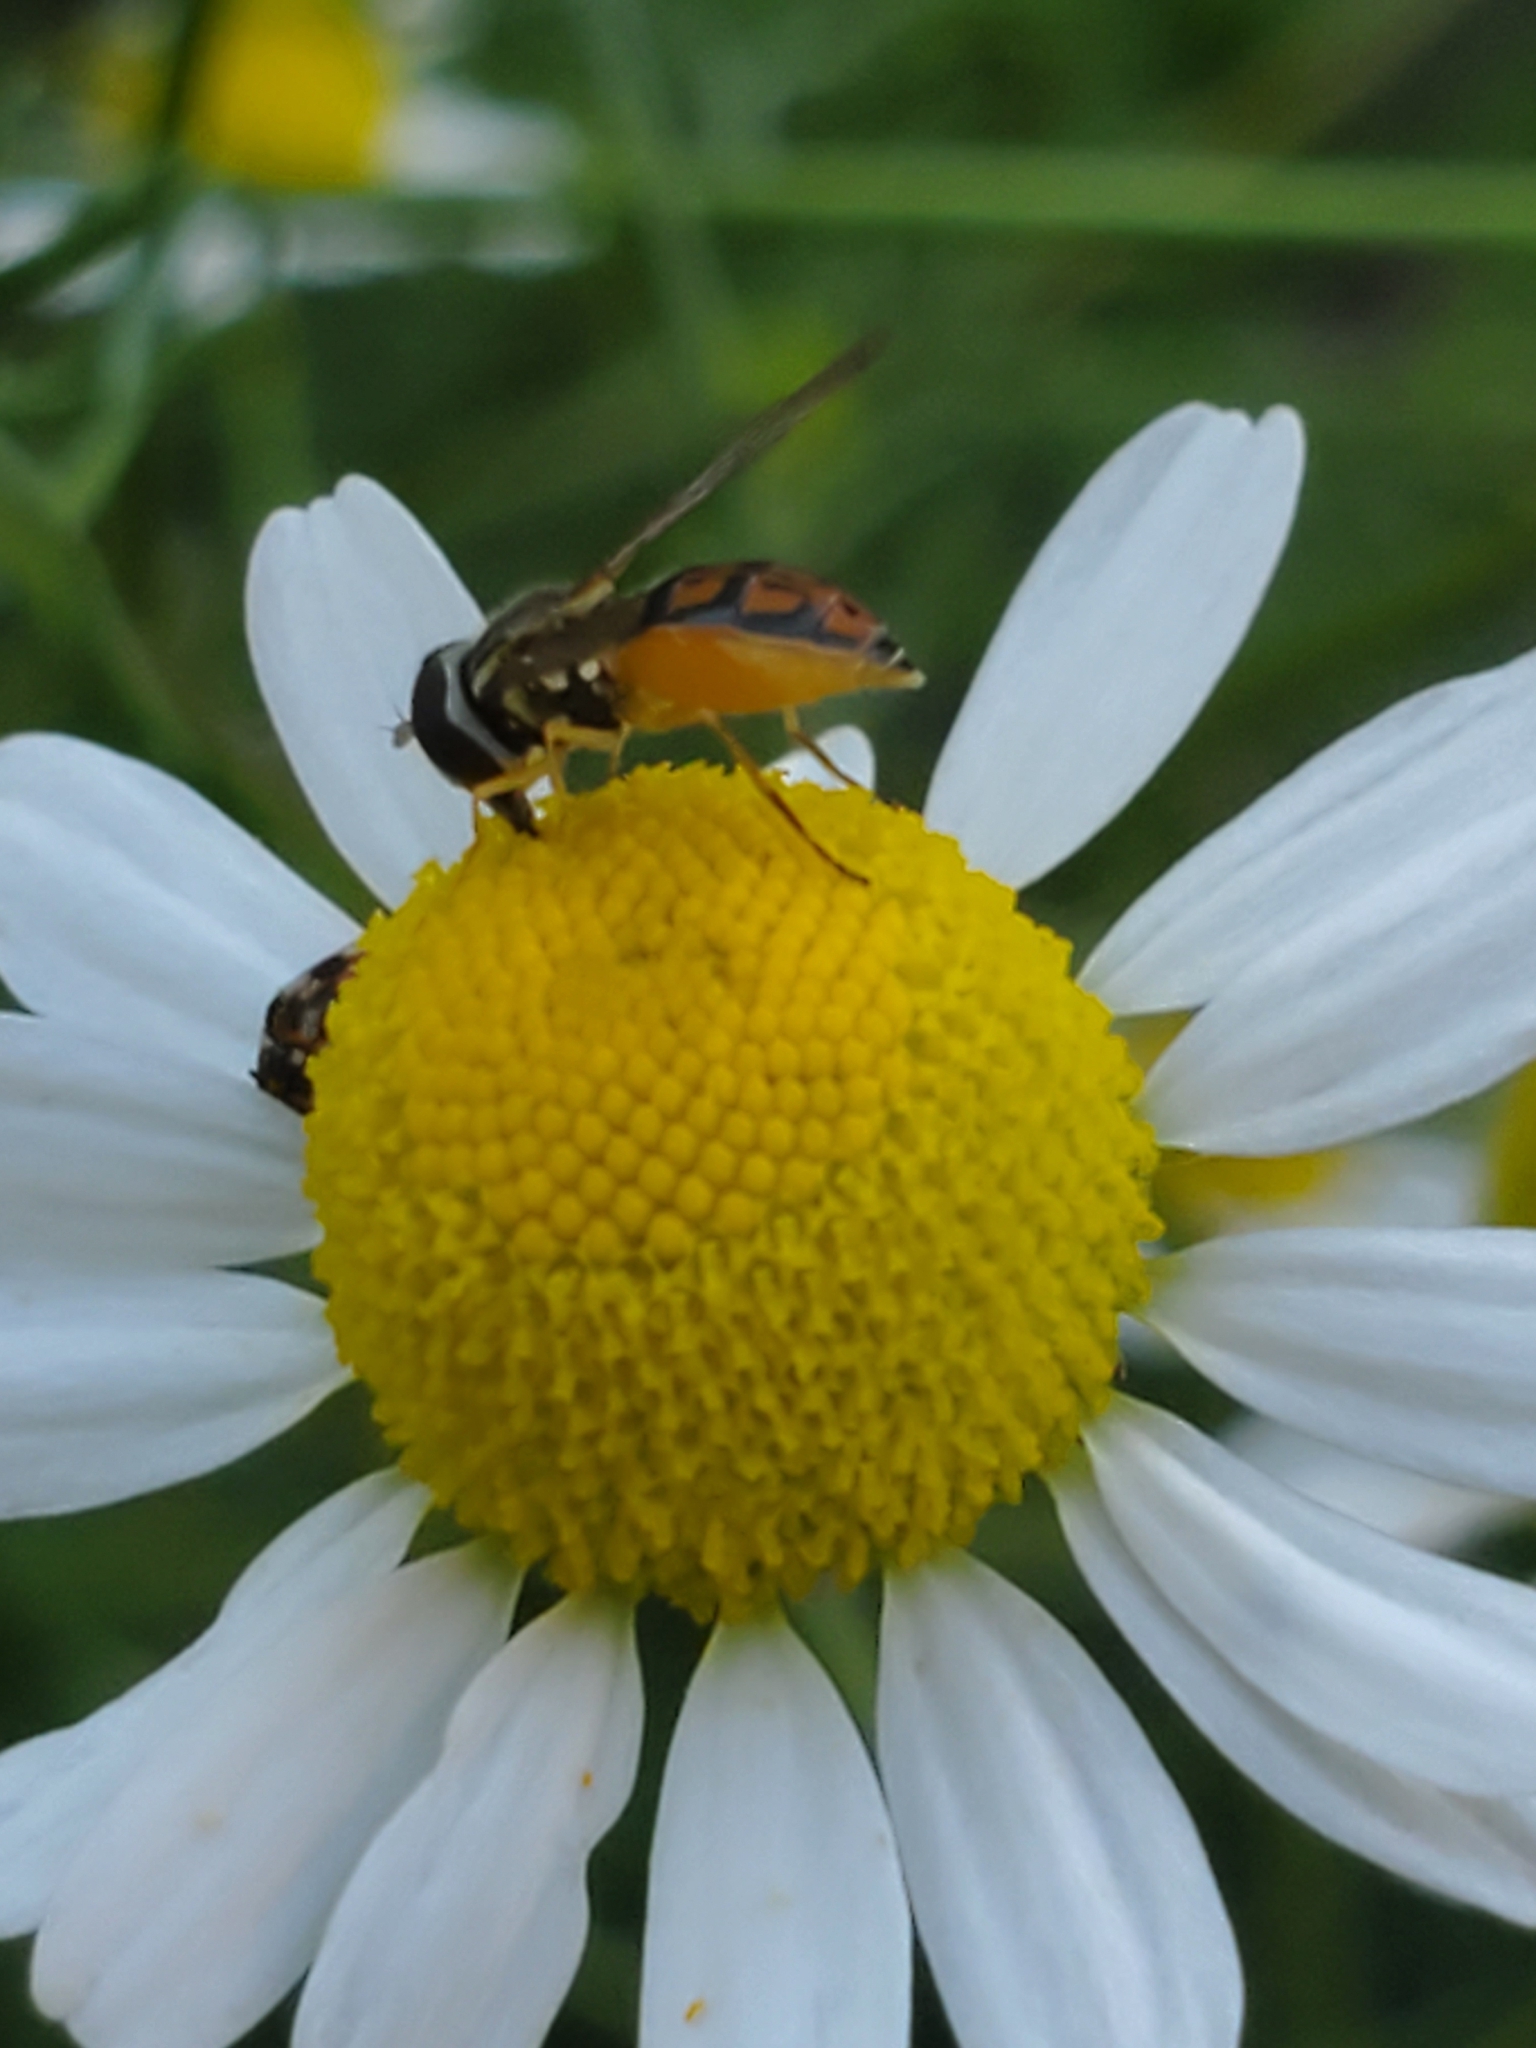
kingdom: Animalia
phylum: Arthropoda
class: Insecta
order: Diptera
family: Syrphidae
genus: Toxomerus
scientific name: Toxomerus marginatus
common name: Syrphid fly
